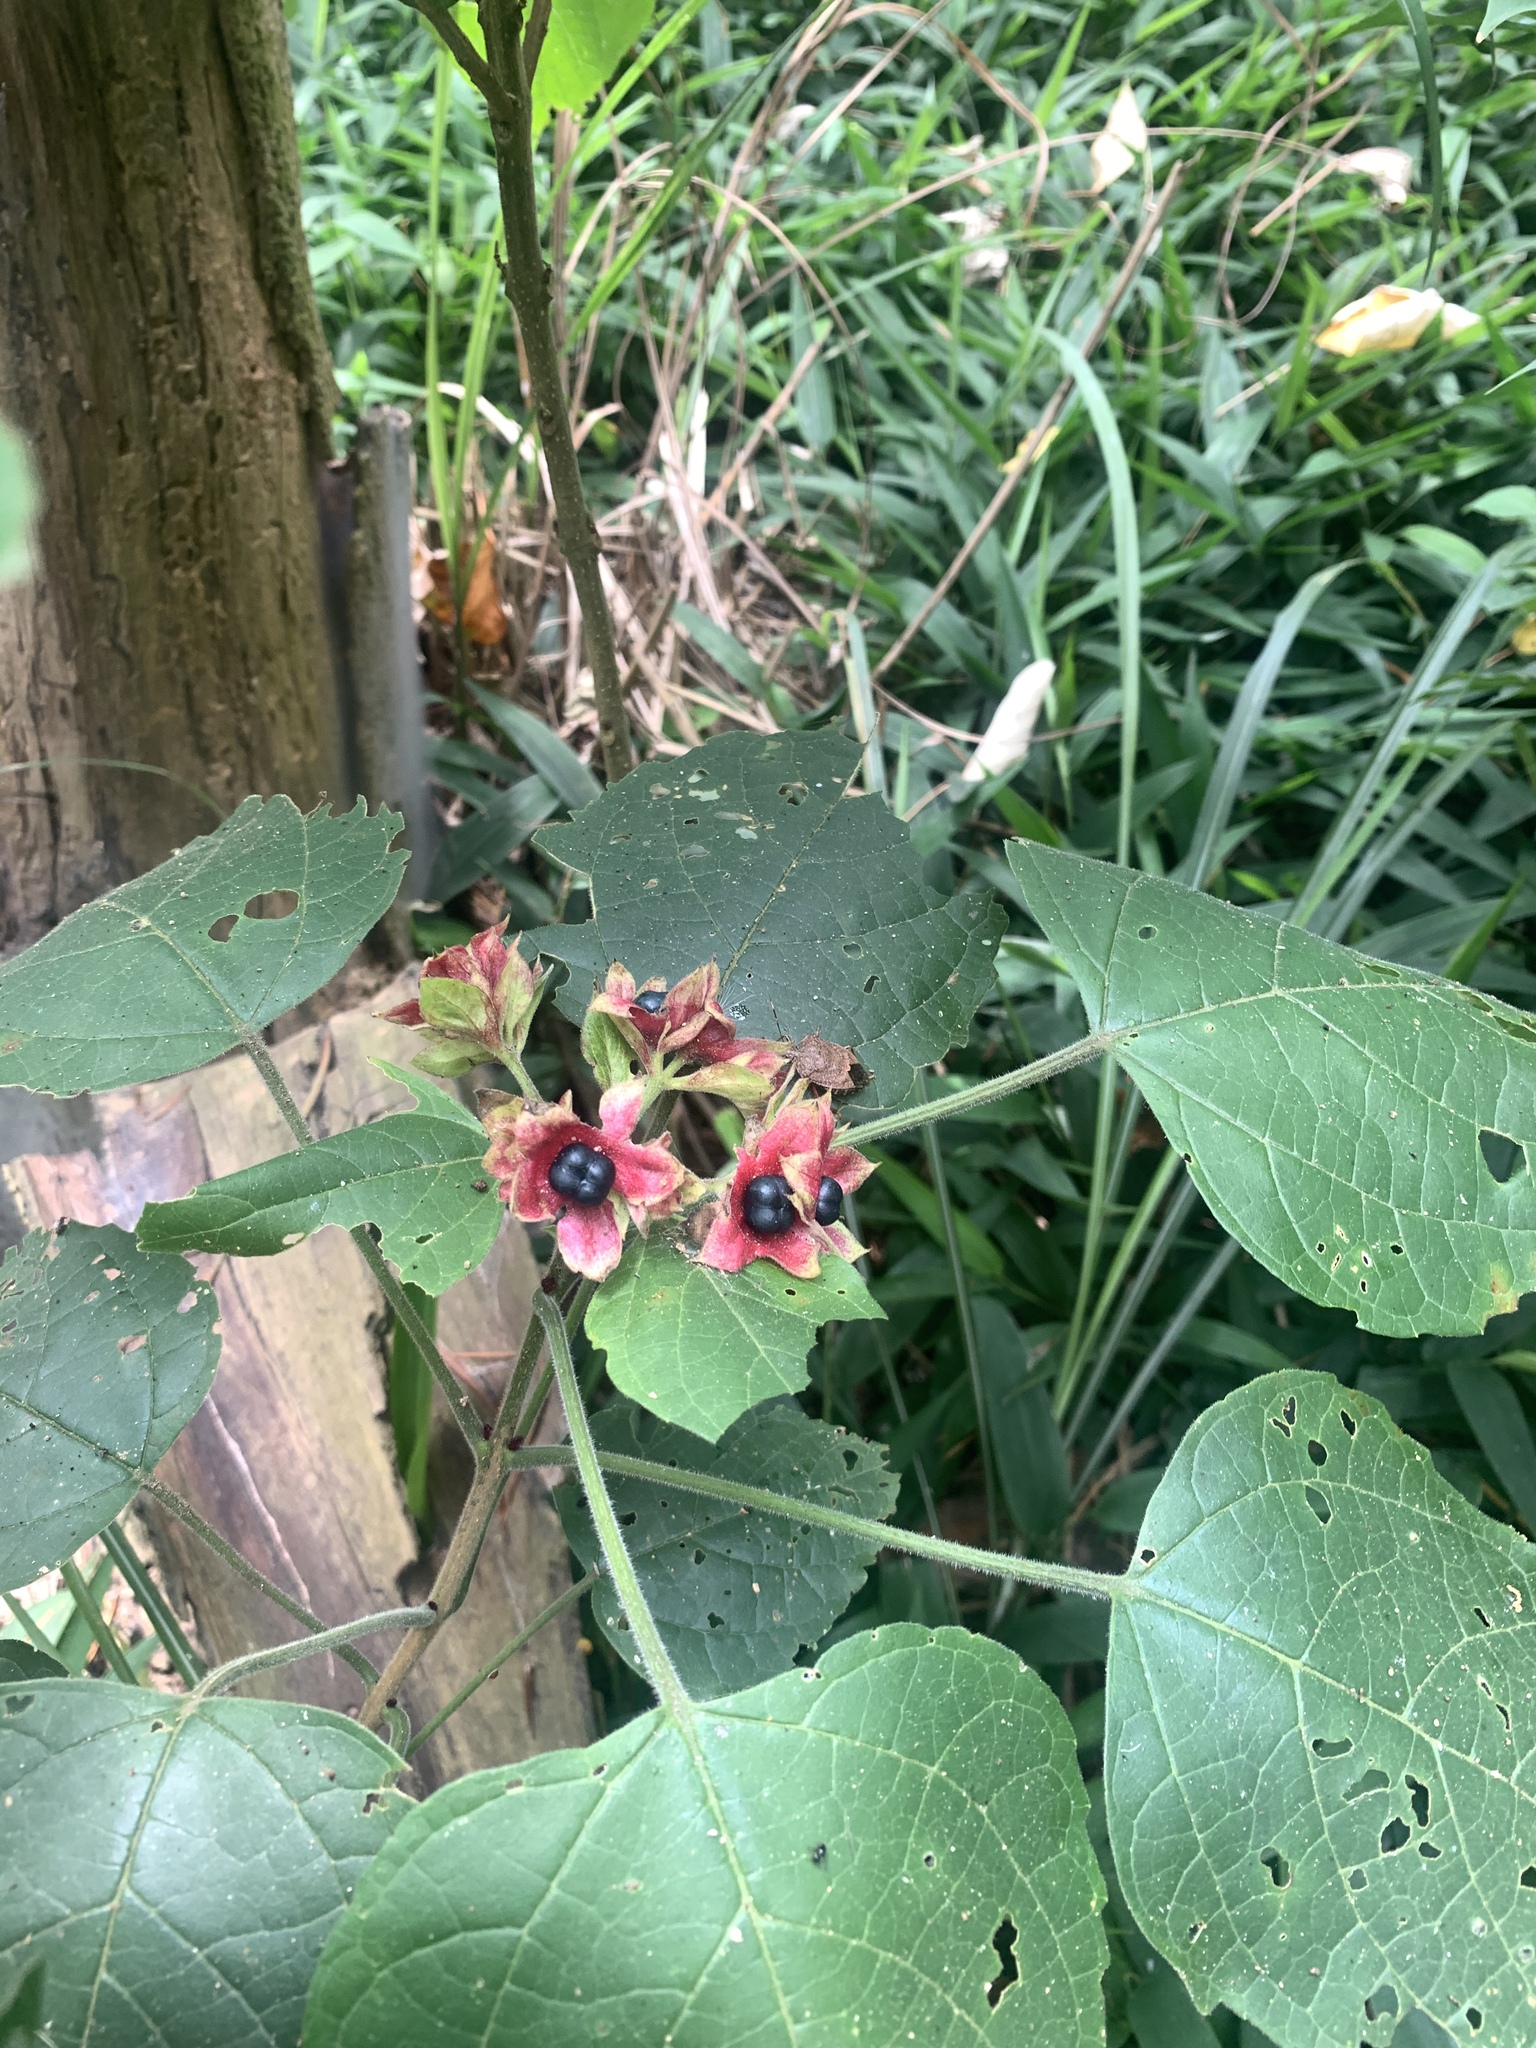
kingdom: Plantae
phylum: Tracheophyta
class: Magnoliopsida
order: Lamiales
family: Lamiaceae
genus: Clerodendrum
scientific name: Clerodendrum canescens
